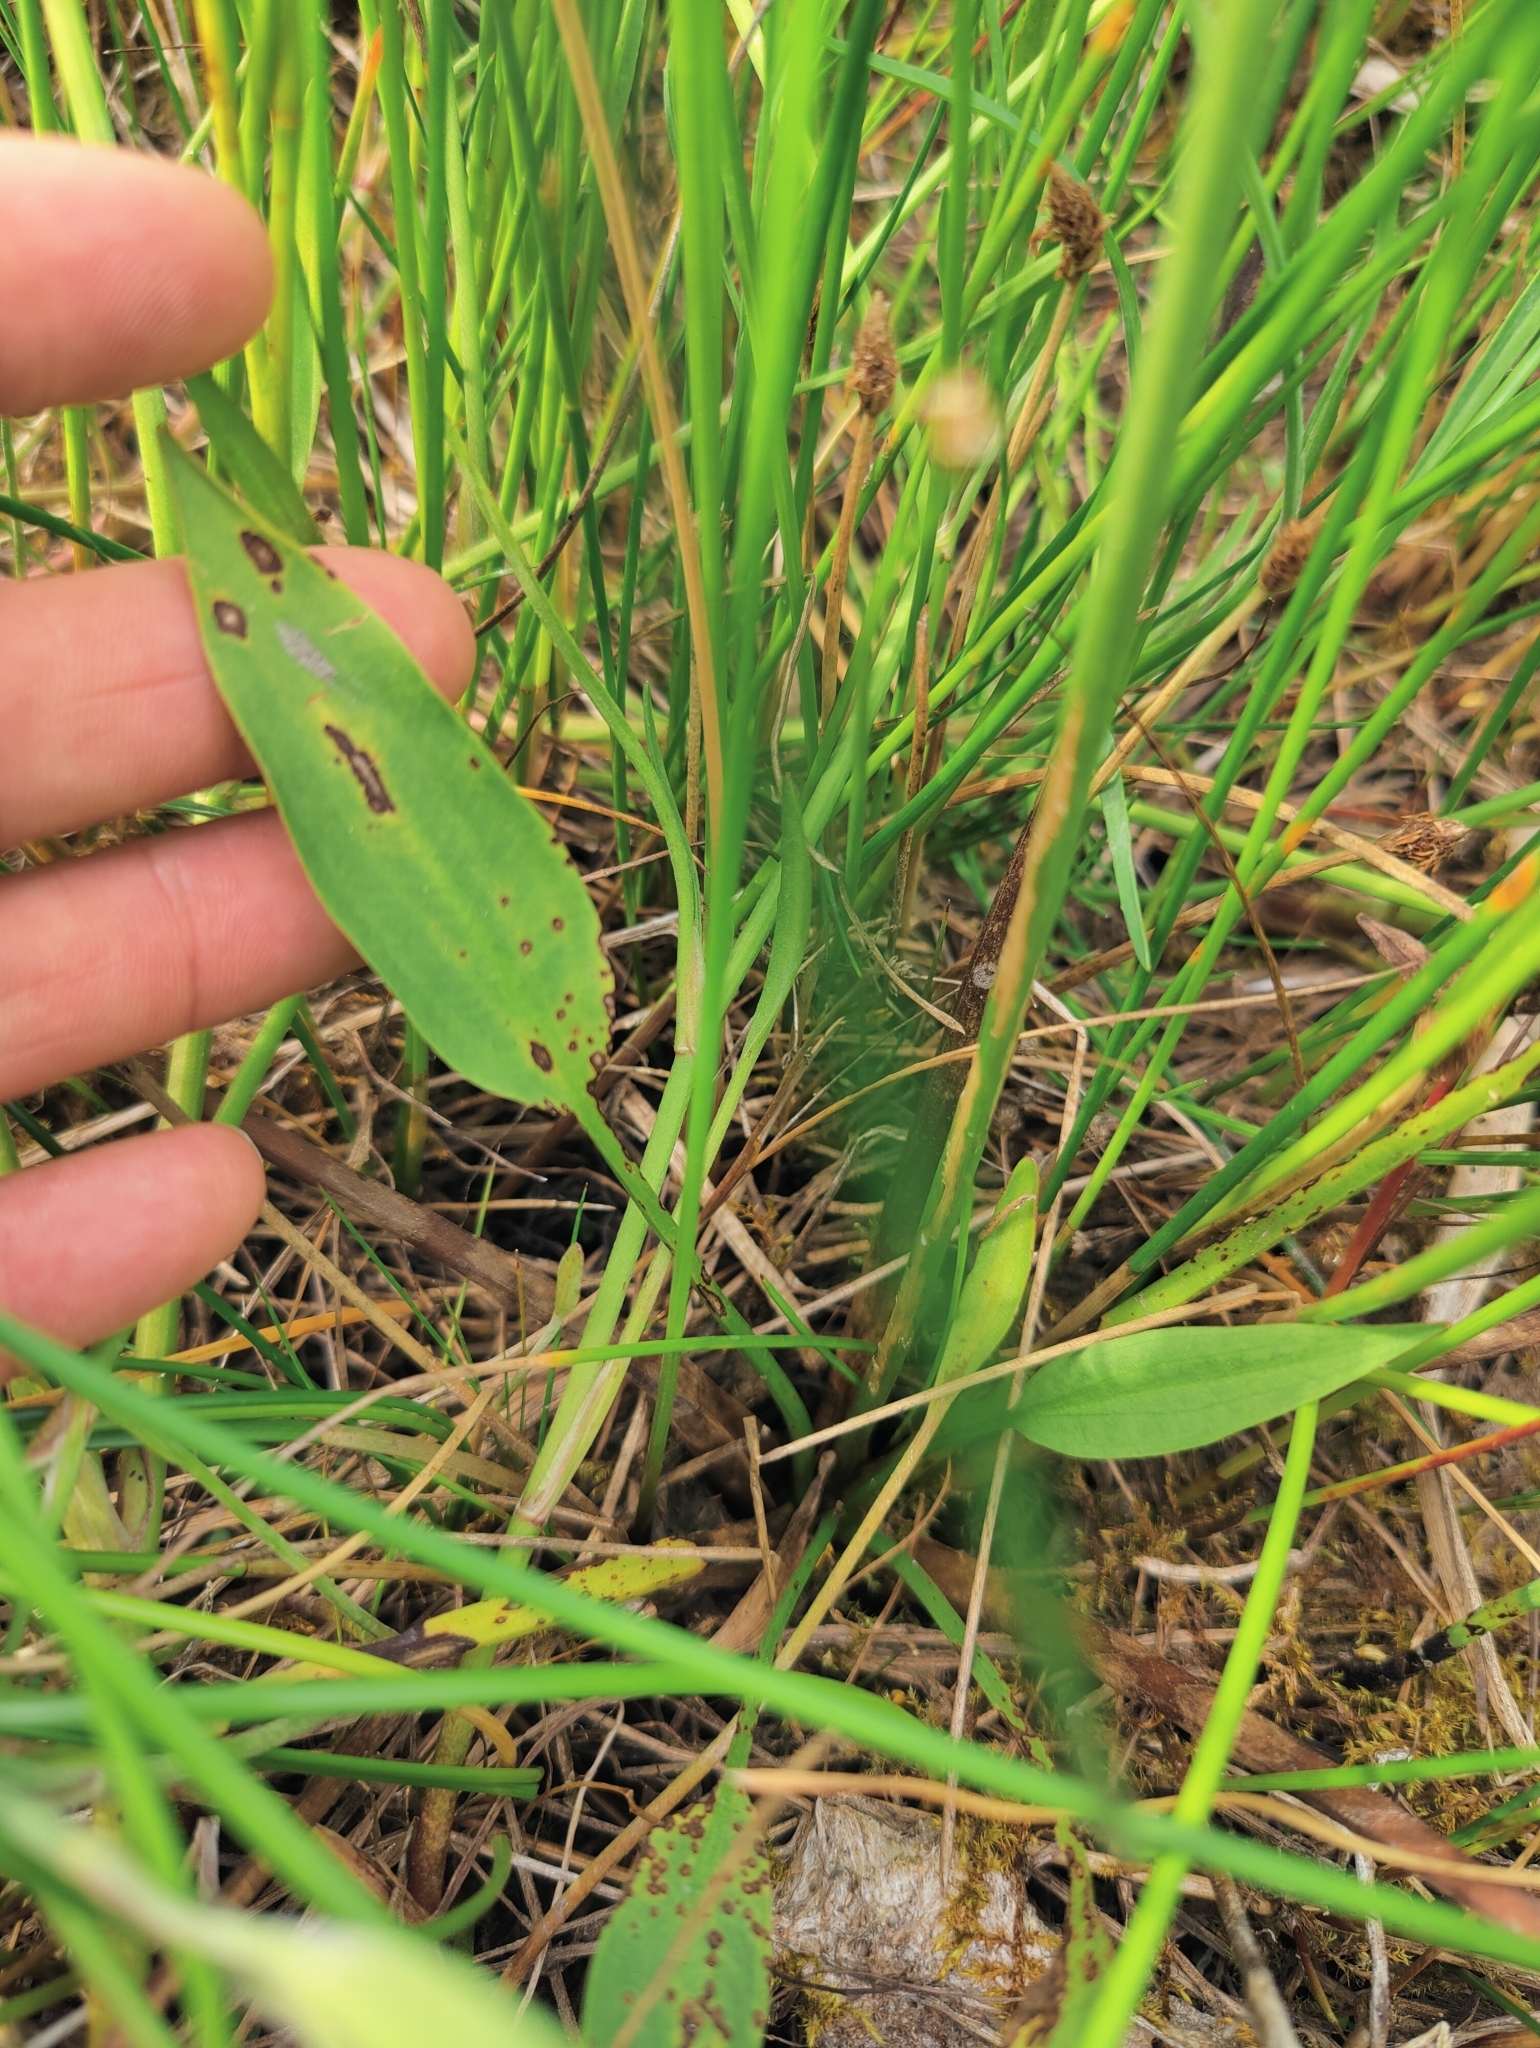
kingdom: Plantae
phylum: Tracheophyta
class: Liliopsida
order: Alismatales
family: Alismataceae
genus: Alisma
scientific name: Alisma plantago-aquatica
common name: Water-plantain
